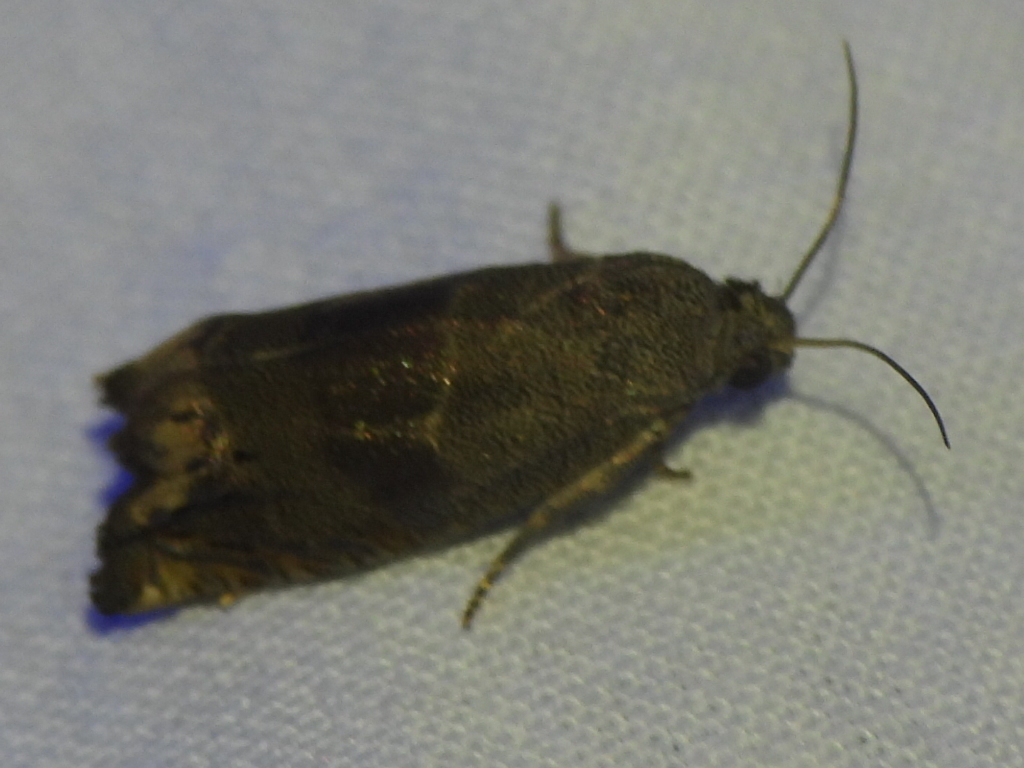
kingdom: Animalia
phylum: Arthropoda
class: Insecta
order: Lepidoptera
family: Tortricidae
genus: Epiblema
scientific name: Epiblema strenuana
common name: Ragweed borer moth
